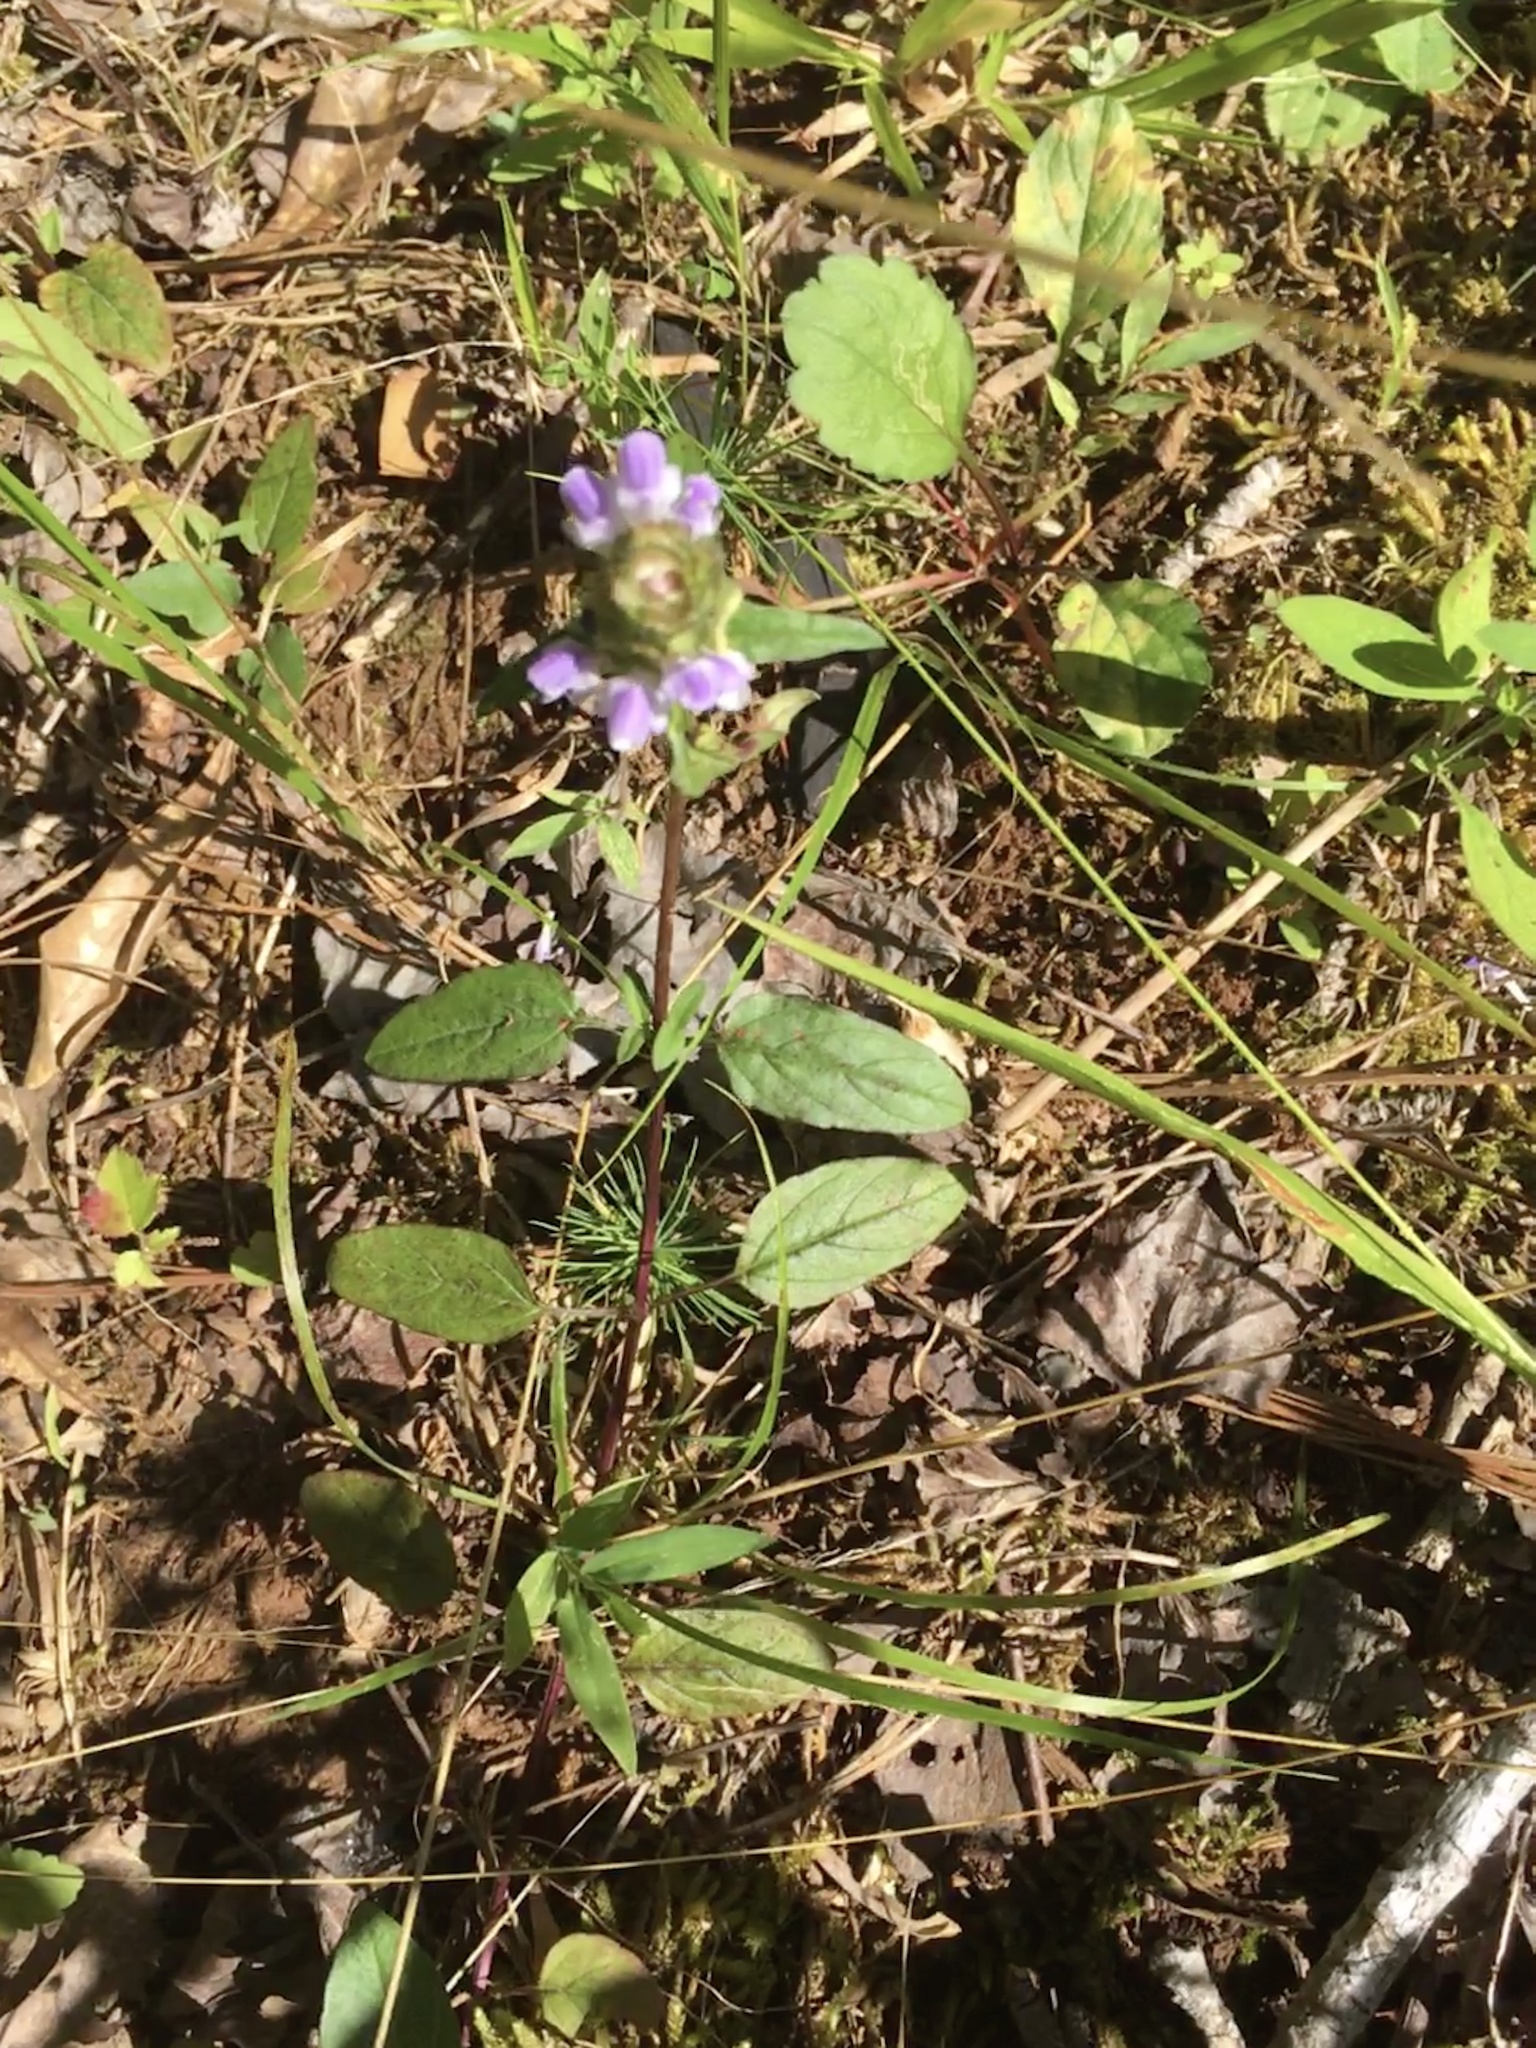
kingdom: Plantae
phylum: Tracheophyta
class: Magnoliopsida
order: Lamiales
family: Lamiaceae
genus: Prunella
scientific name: Prunella vulgaris
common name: Heal-all
